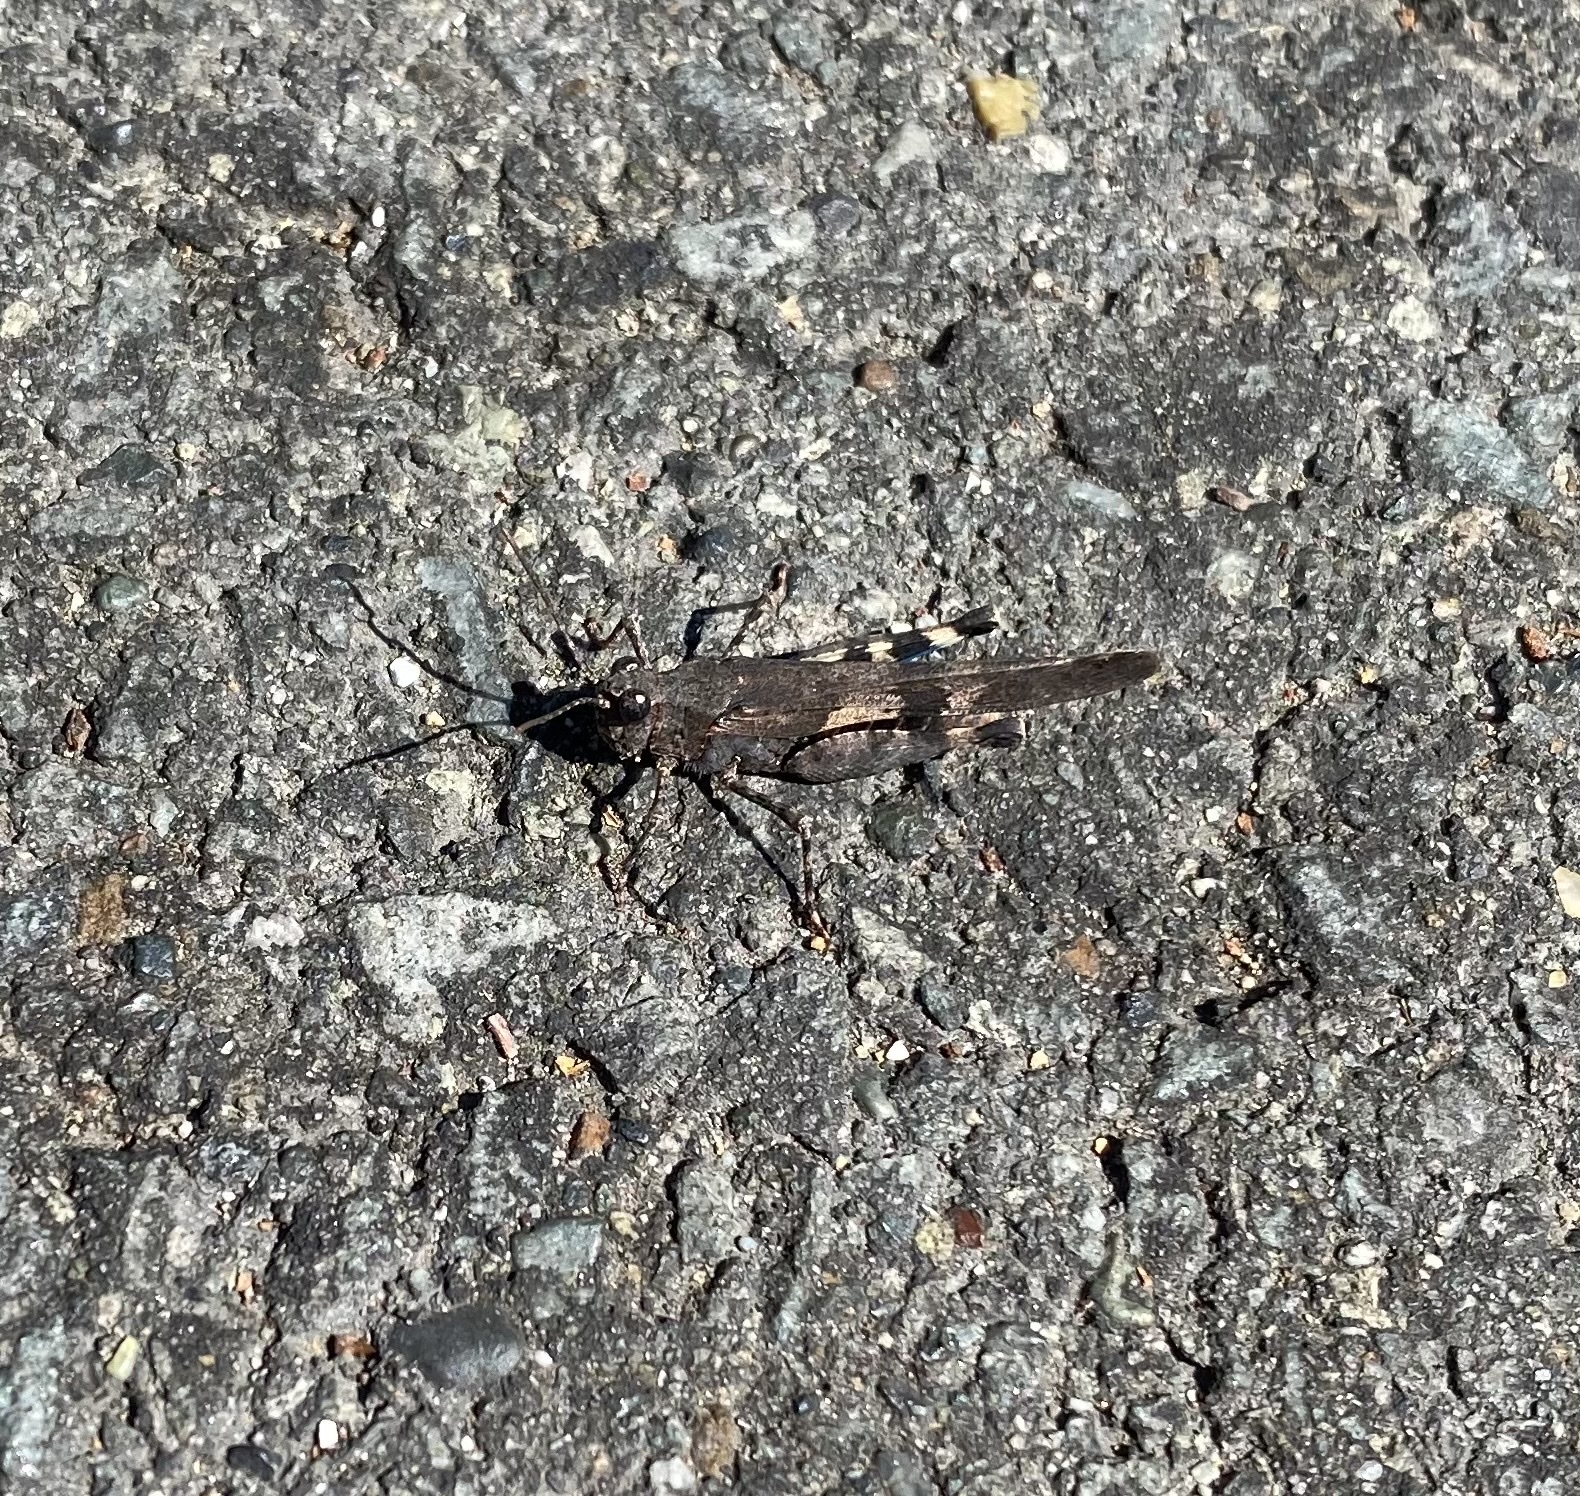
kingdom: Animalia
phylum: Arthropoda
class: Insecta
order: Orthoptera
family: Acrididae
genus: Trimerotropis
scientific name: Trimerotropis fontana
